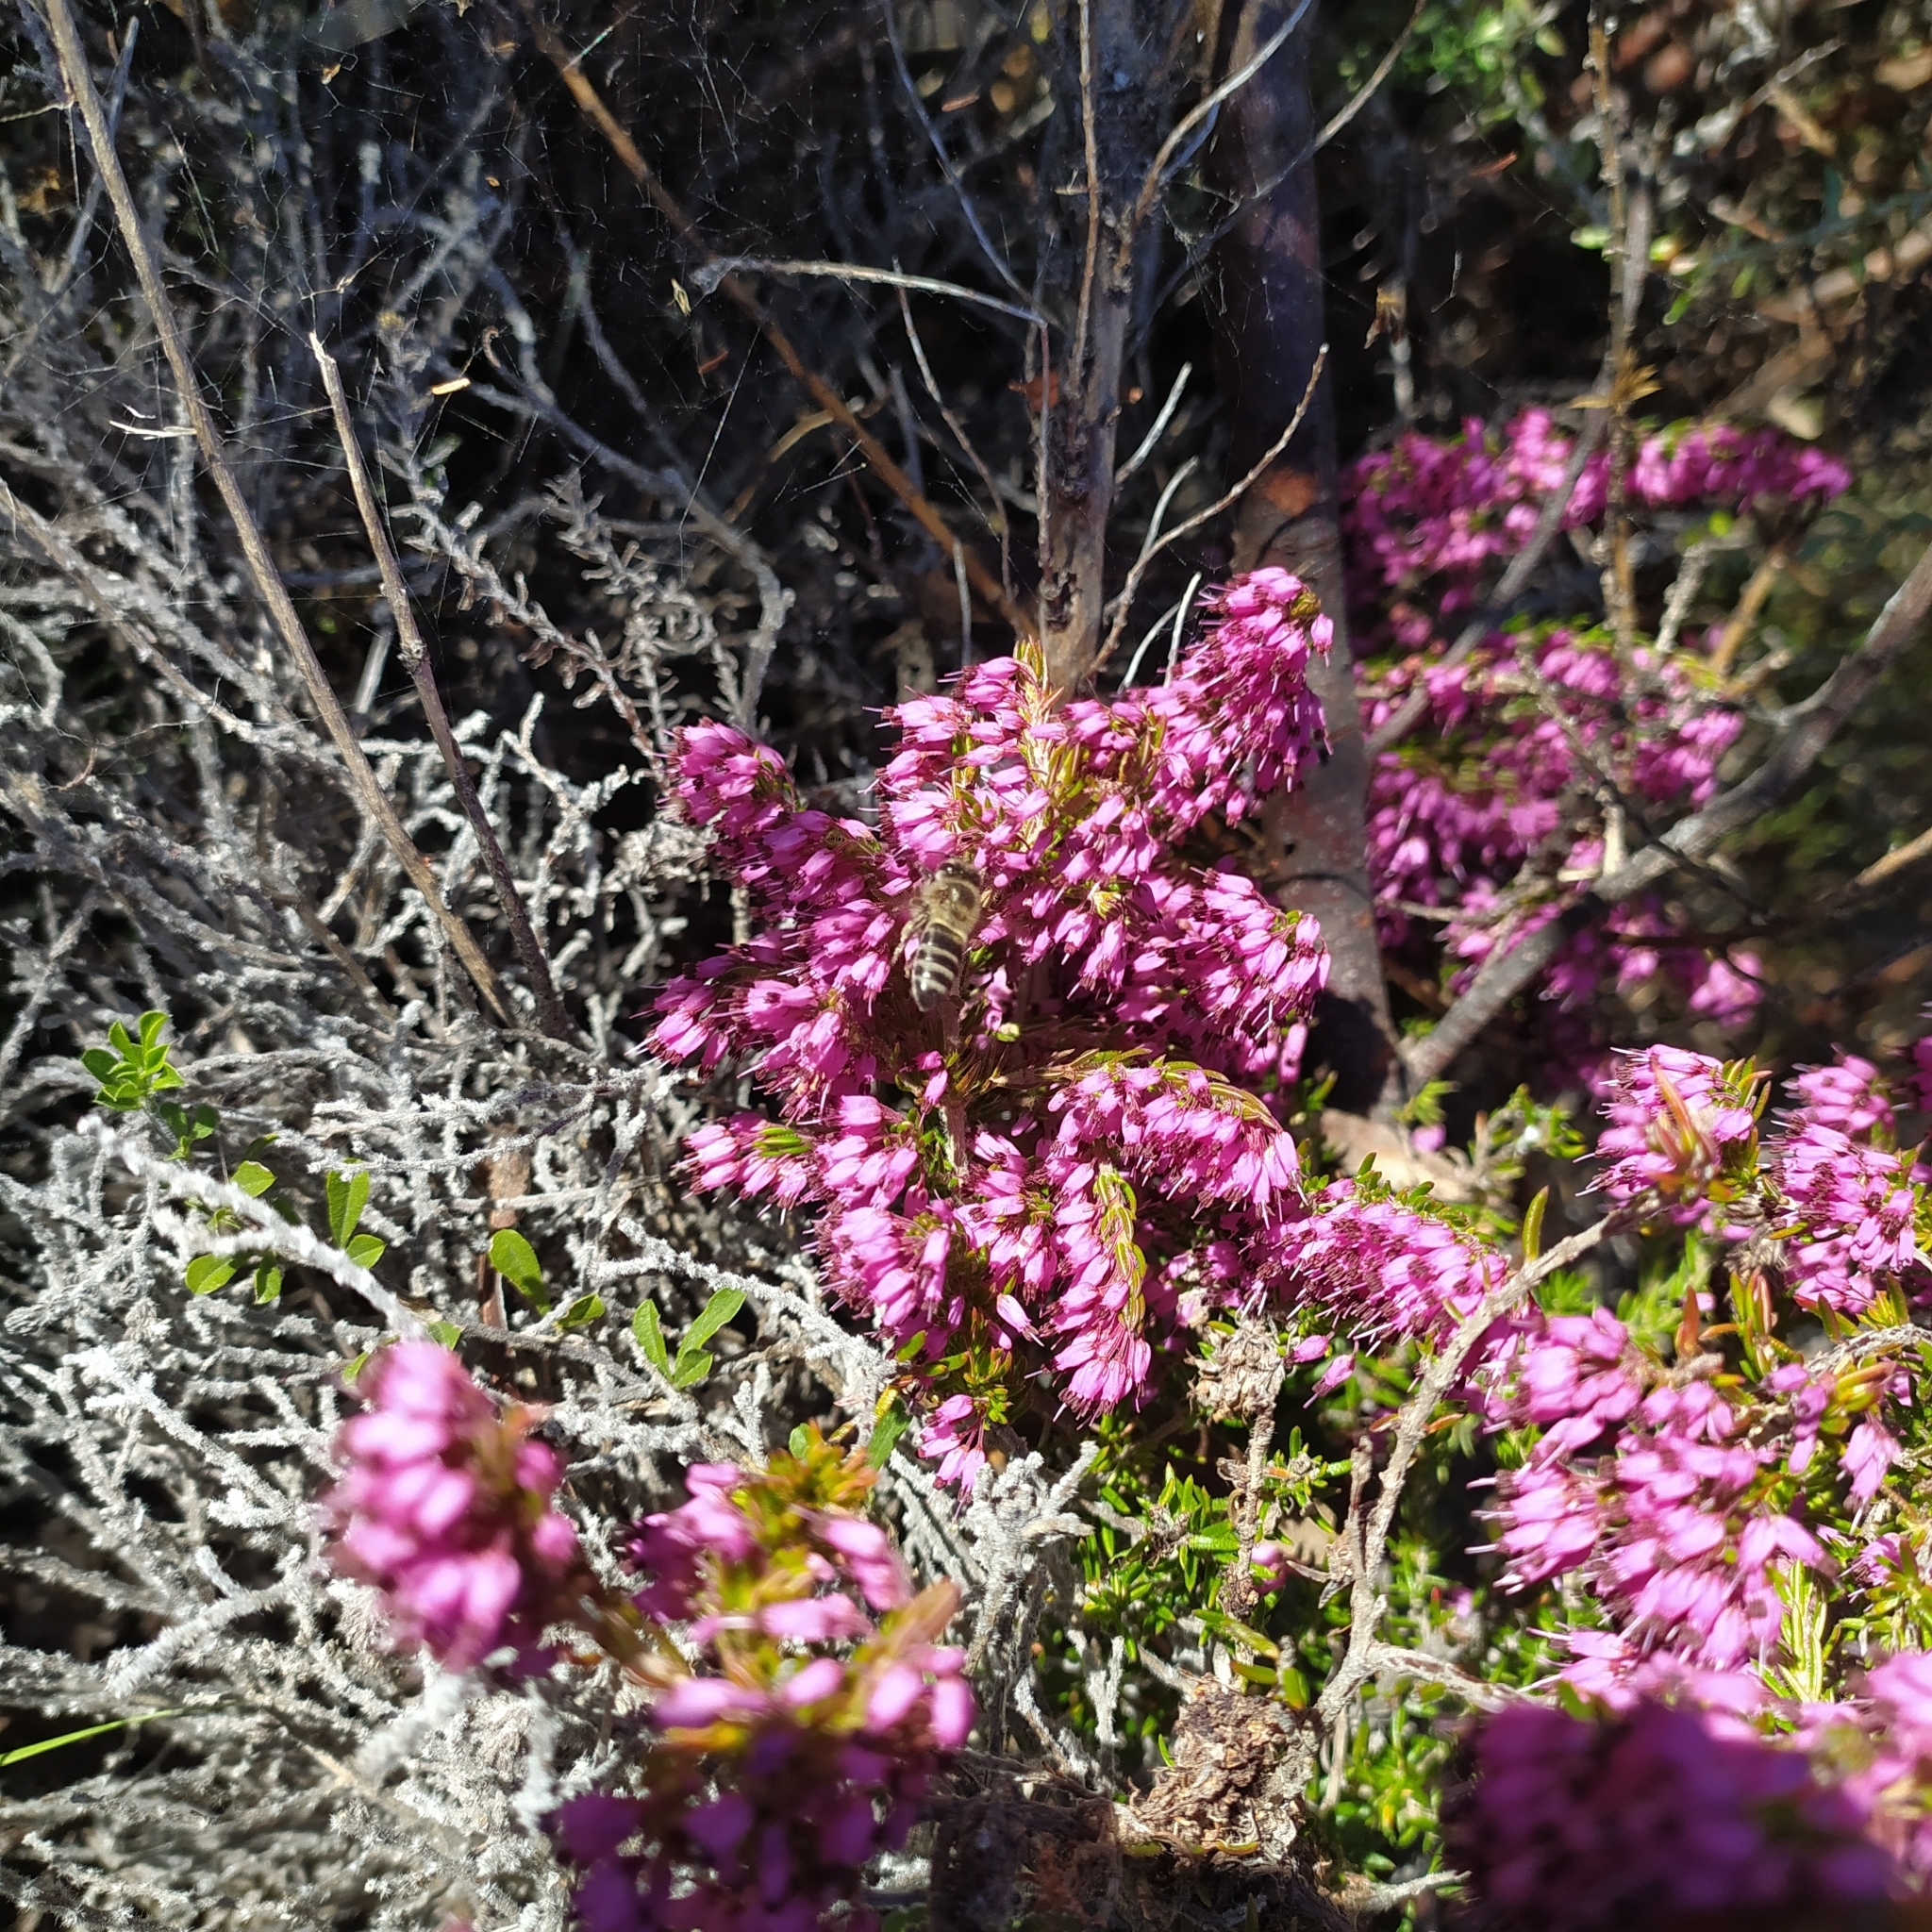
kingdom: Animalia
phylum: Arthropoda
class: Insecta
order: Hymenoptera
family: Apidae
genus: Apis
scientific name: Apis mellifera
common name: Honey bee
